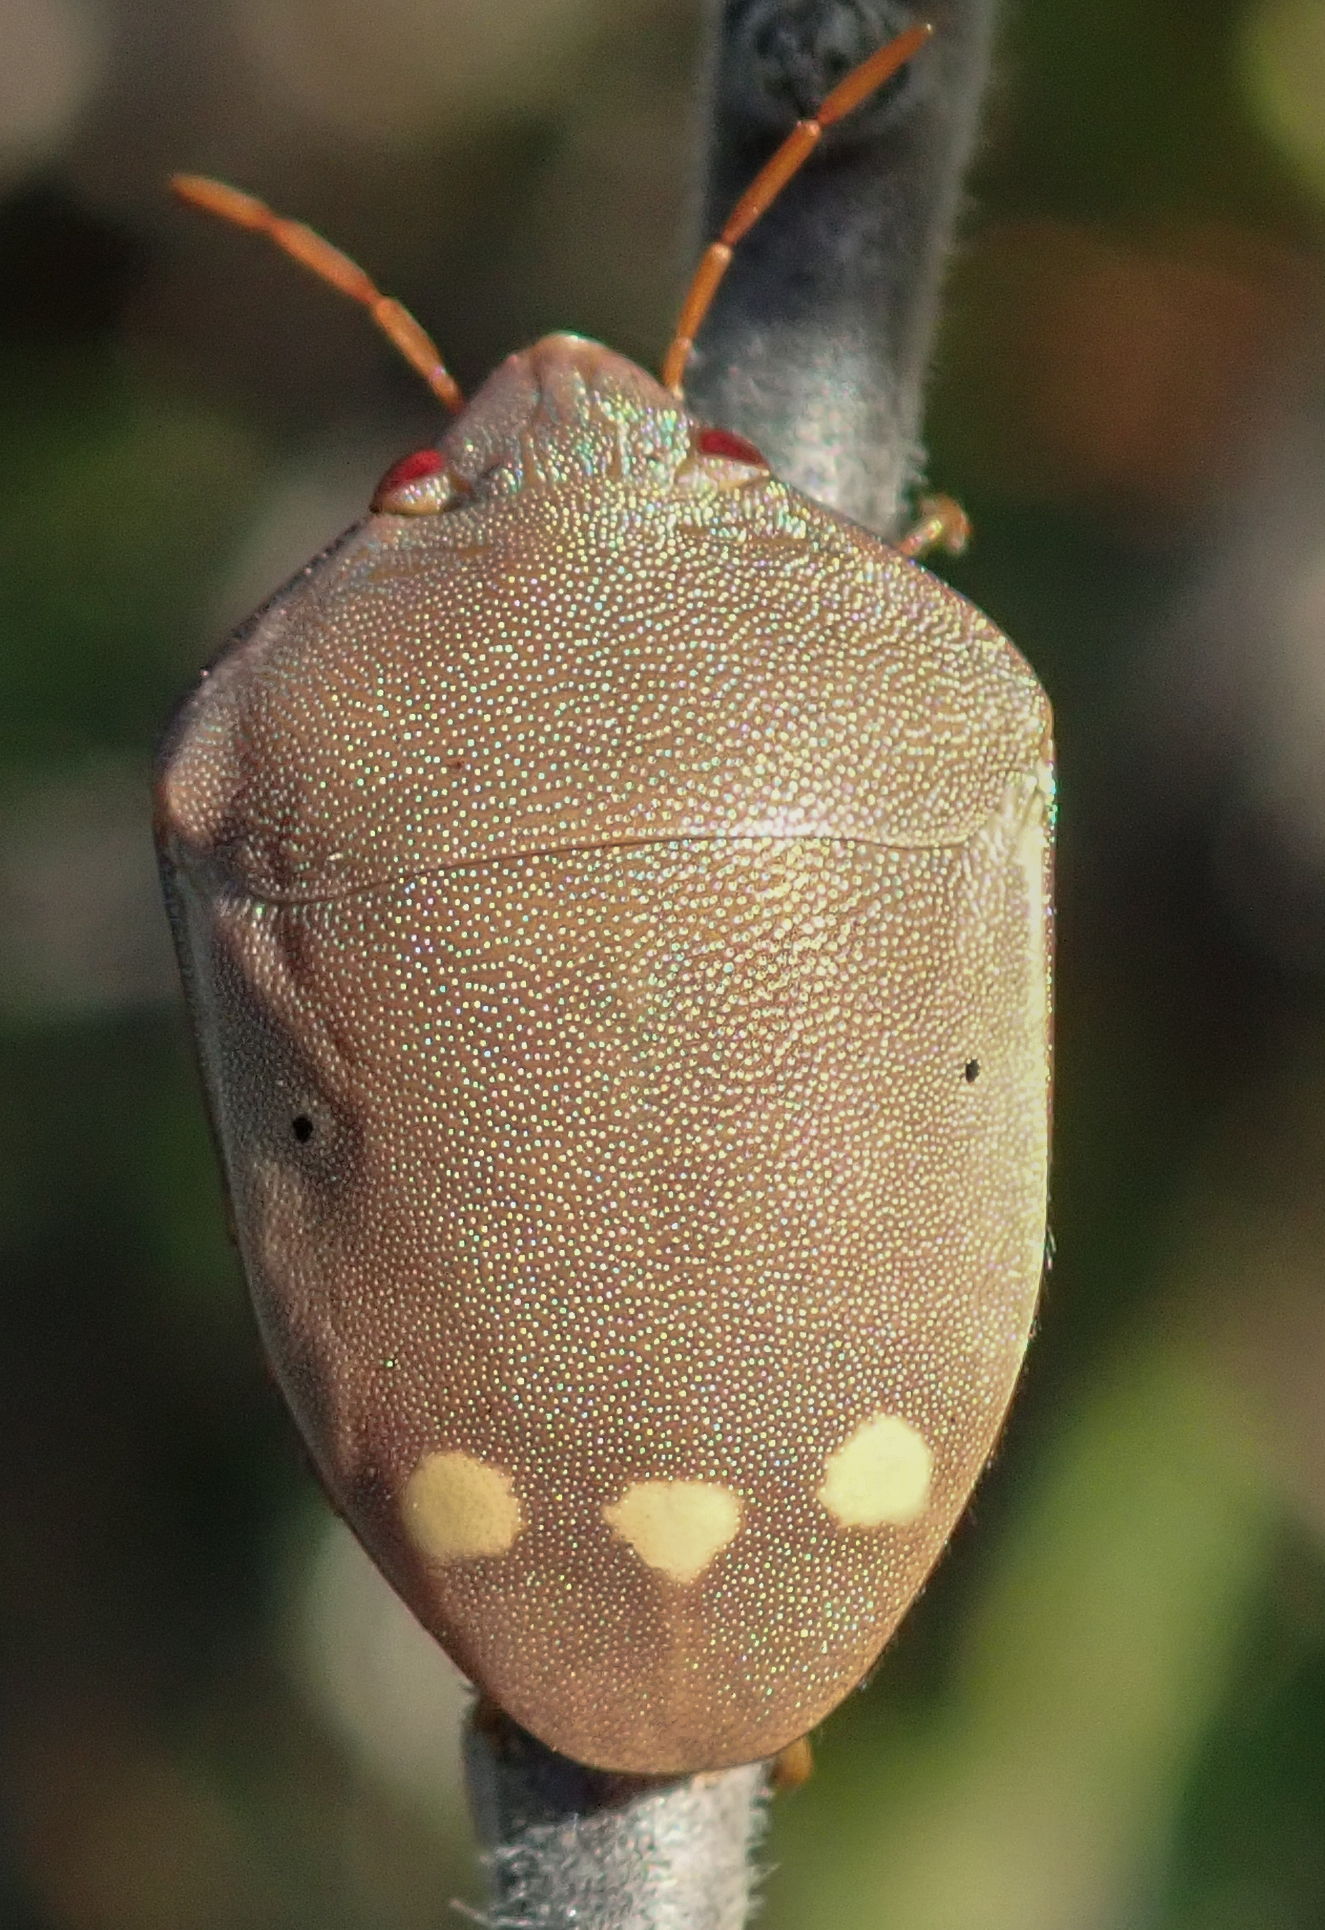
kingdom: Animalia
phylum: Arthropoda
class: Insecta
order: Hemiptera
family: Scutelleridae
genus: Solenosthedium
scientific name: Solenosthedium
